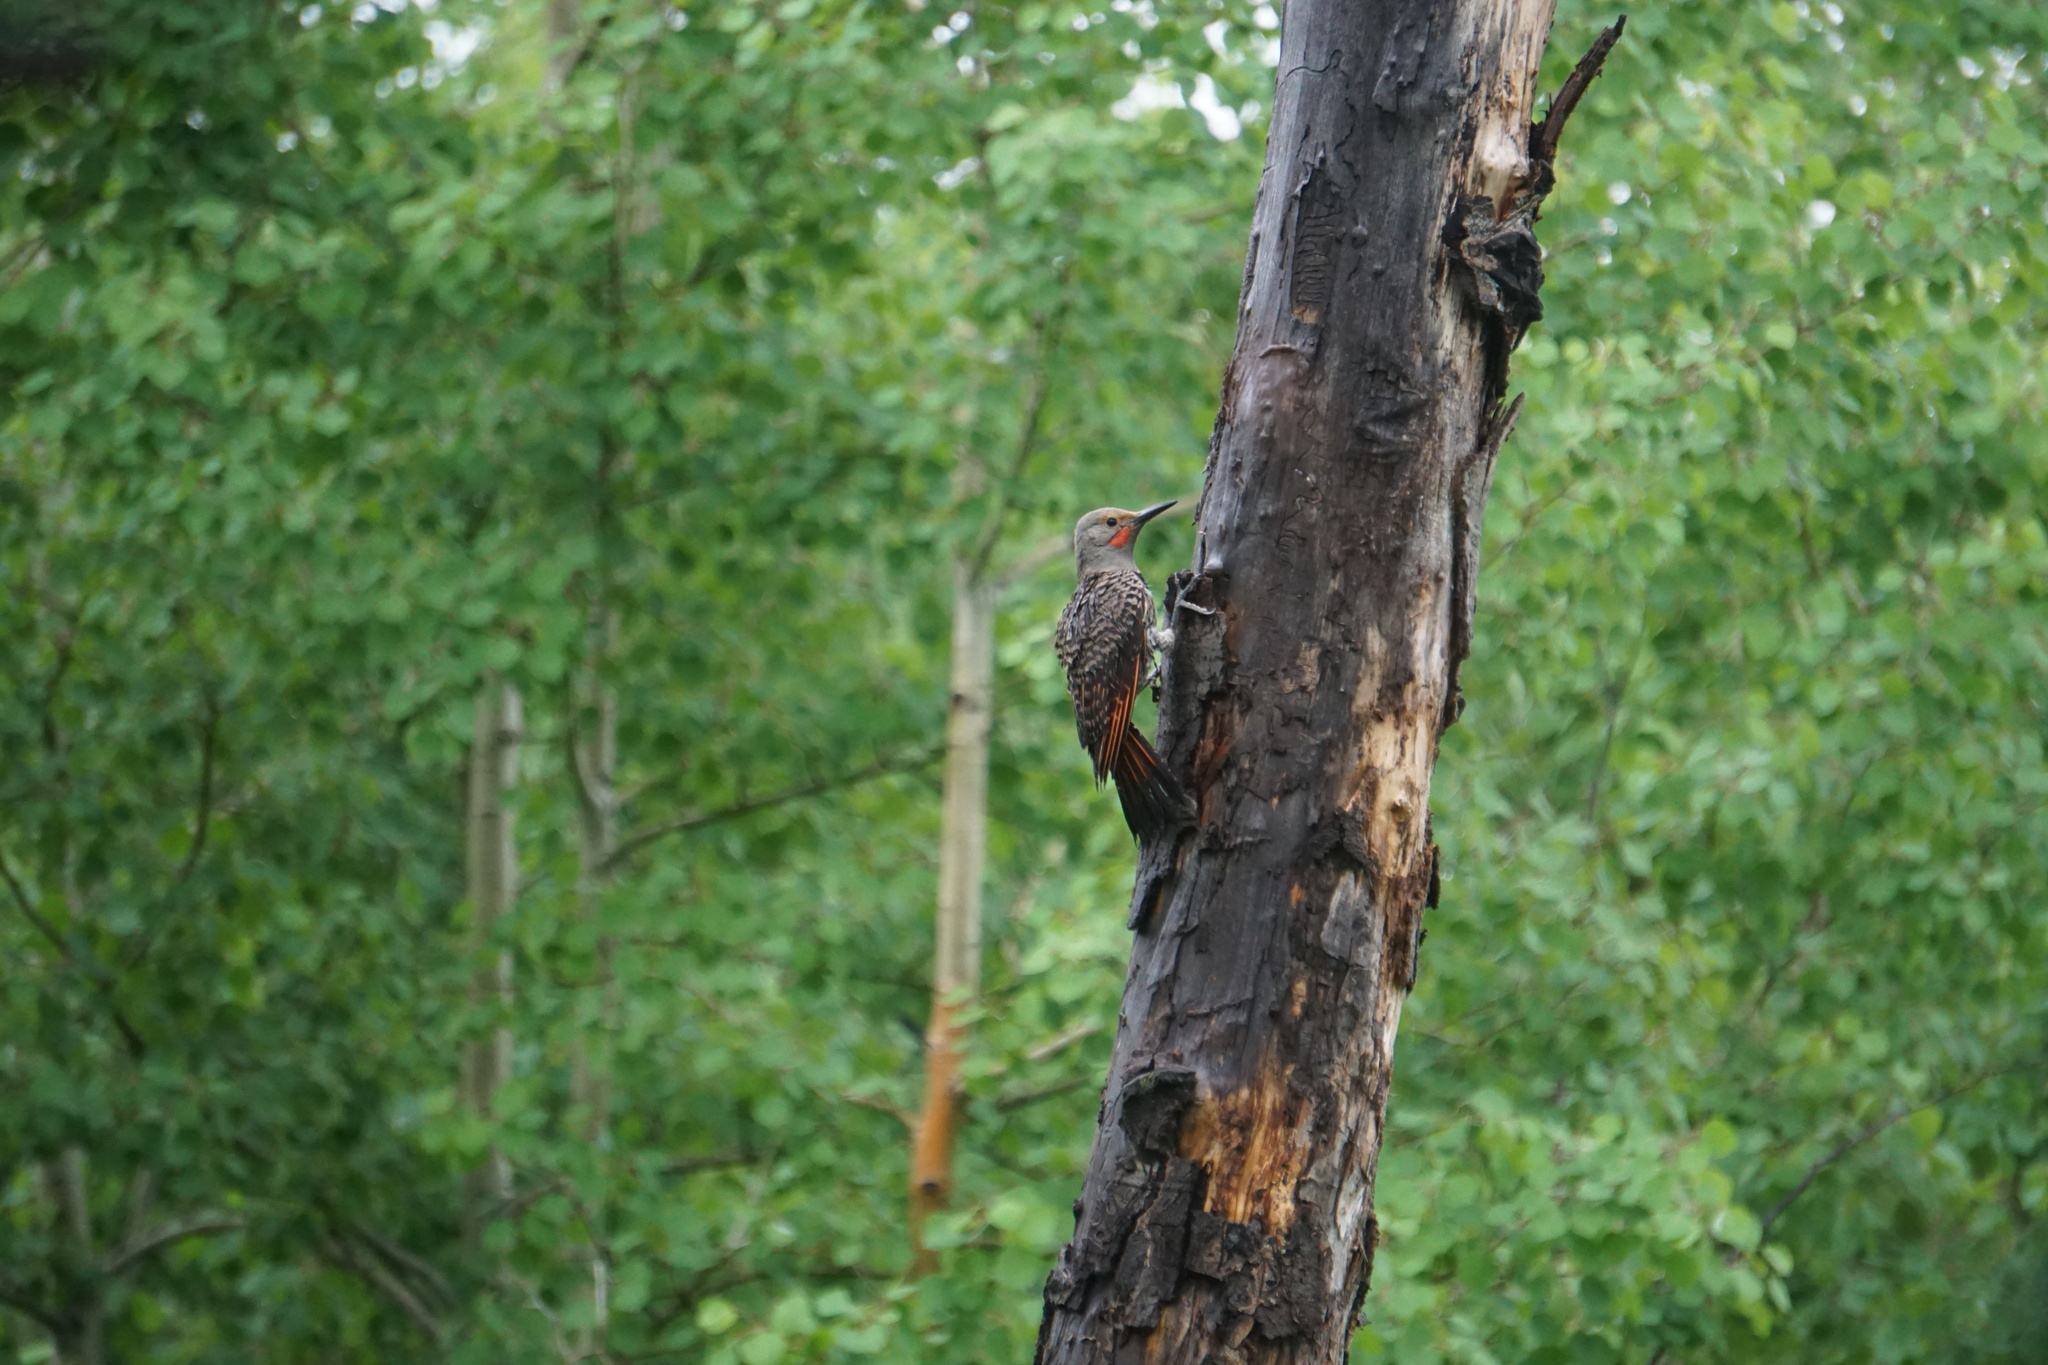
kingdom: Animalia
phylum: Chordata
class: Aves
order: Piciformes
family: Picidae
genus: Colaptes
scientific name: Colaptes auratus
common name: Northern flicker
